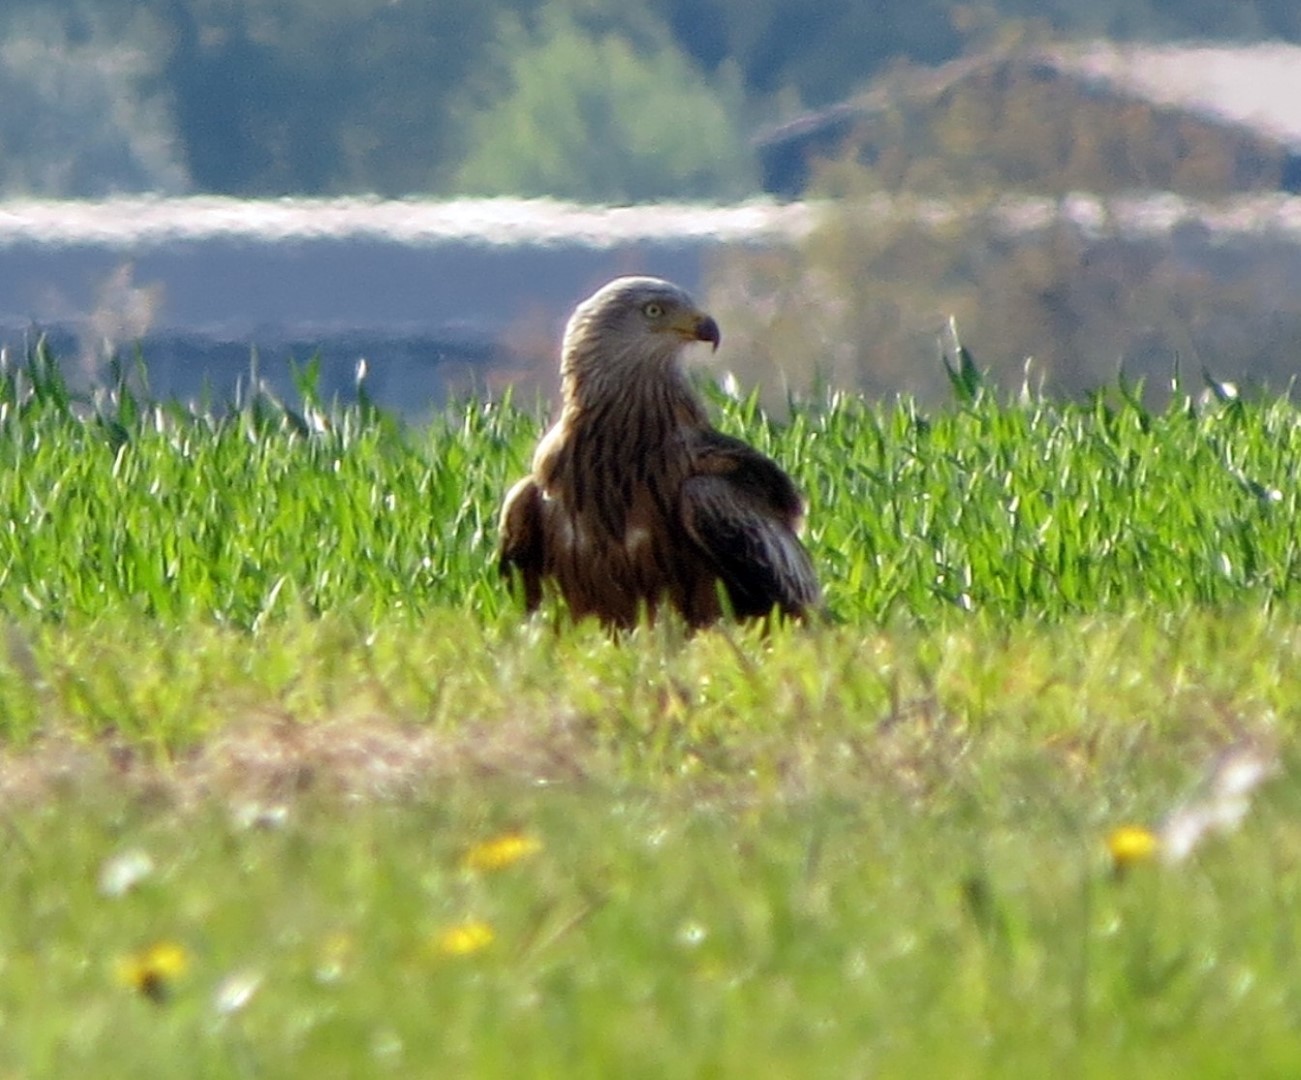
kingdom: Animalia
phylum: Chordata
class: Aves
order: Accipitriformes
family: Accipitridae
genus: Milvus
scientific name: Milvus milvus
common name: Red kite
